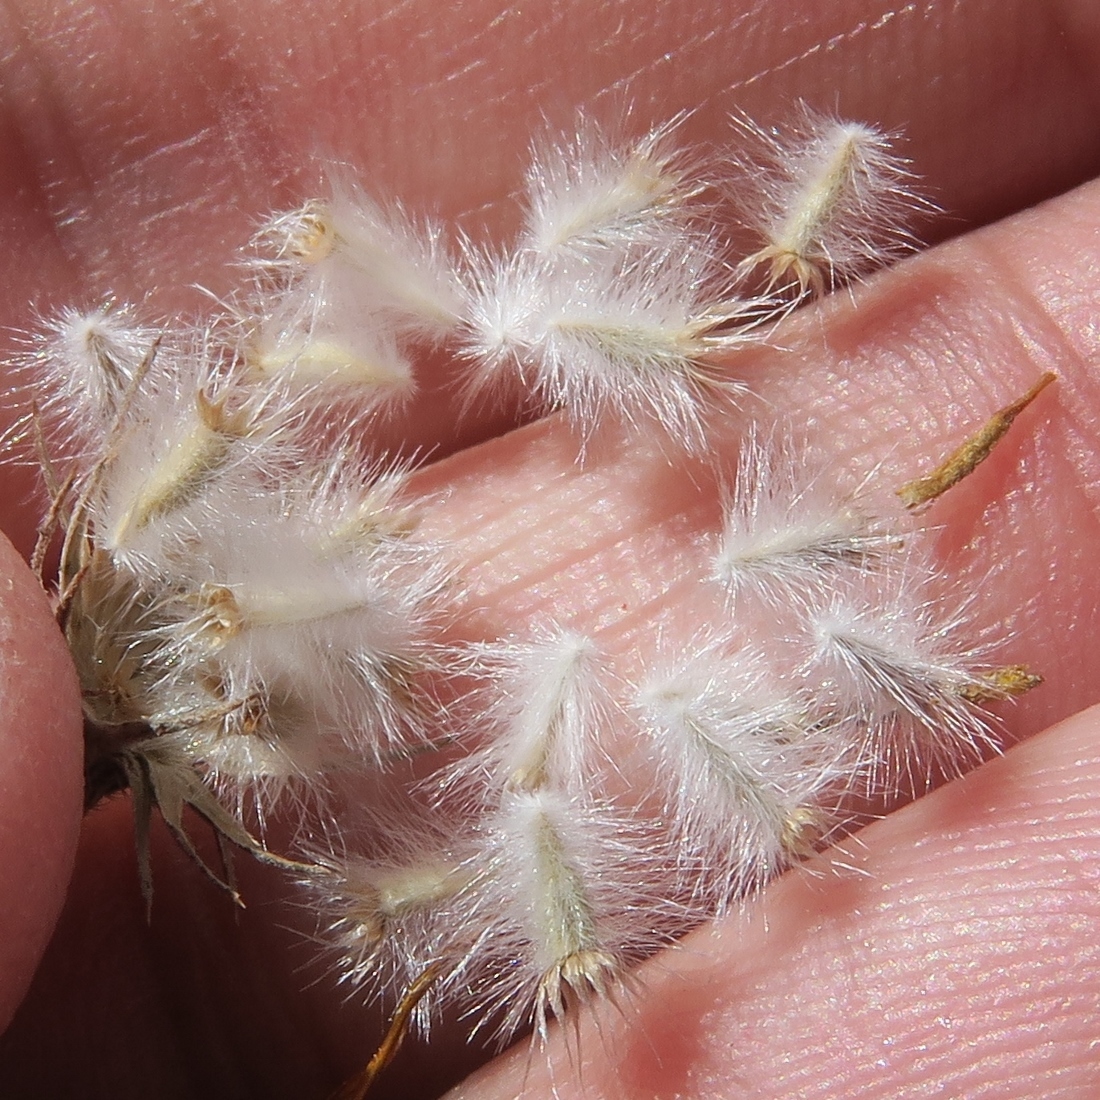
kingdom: Plantae
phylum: Tracheophyta
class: Magnoliopsida
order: Asterales
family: Asteraceae
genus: Gorteria
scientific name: Gorteria alienata
